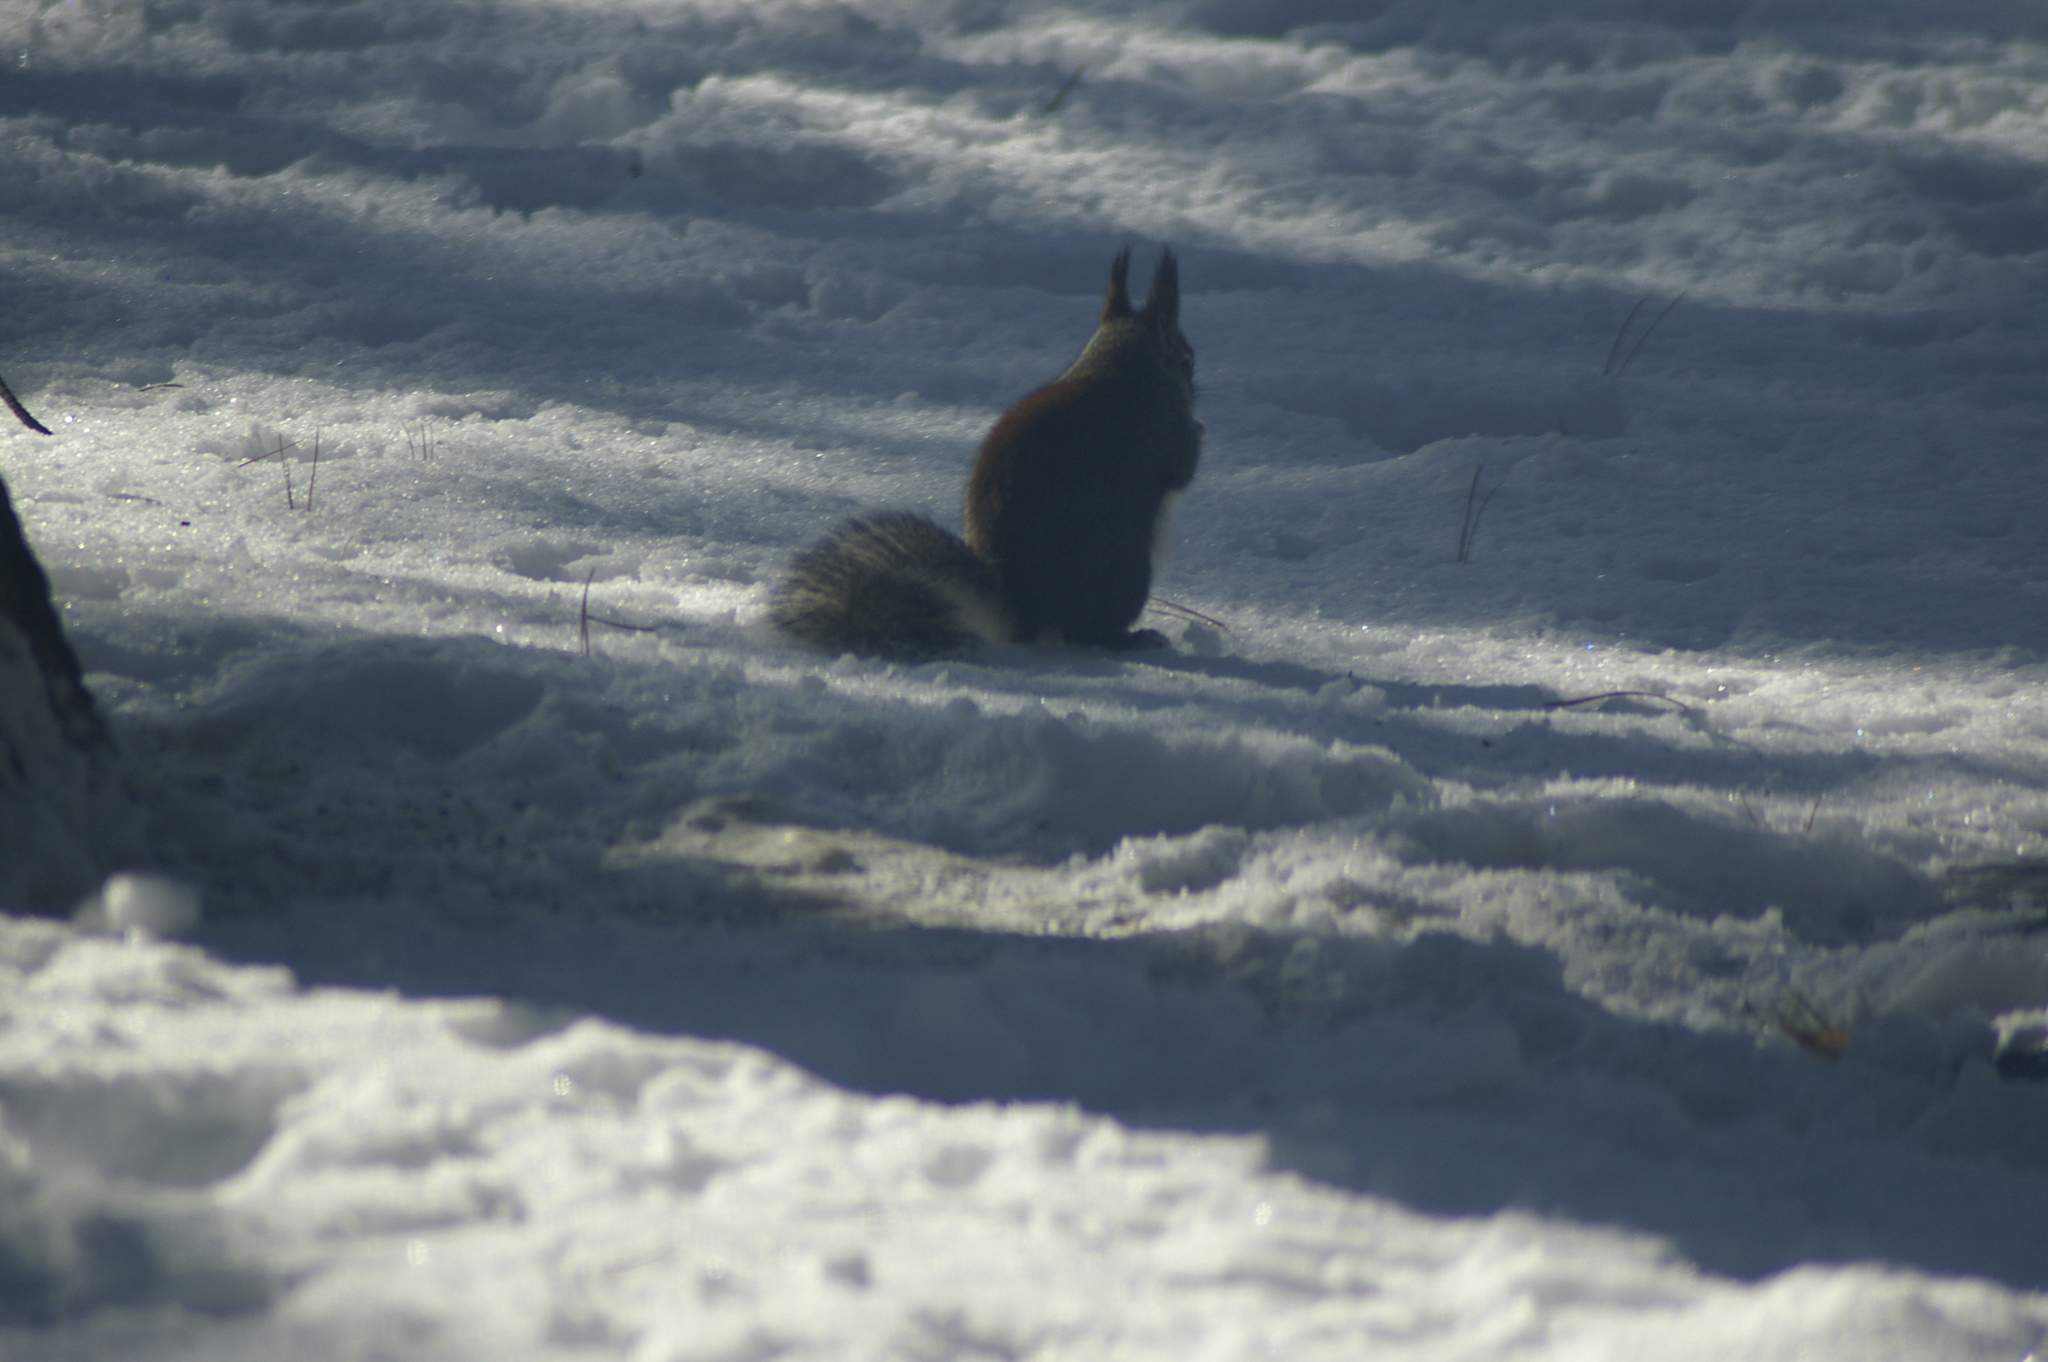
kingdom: Animalia
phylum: Chordata
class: Mammalia
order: Rodentia
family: Sciuridae
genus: Sciurus
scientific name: Sciurus aberti
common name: Abert's squirrel
